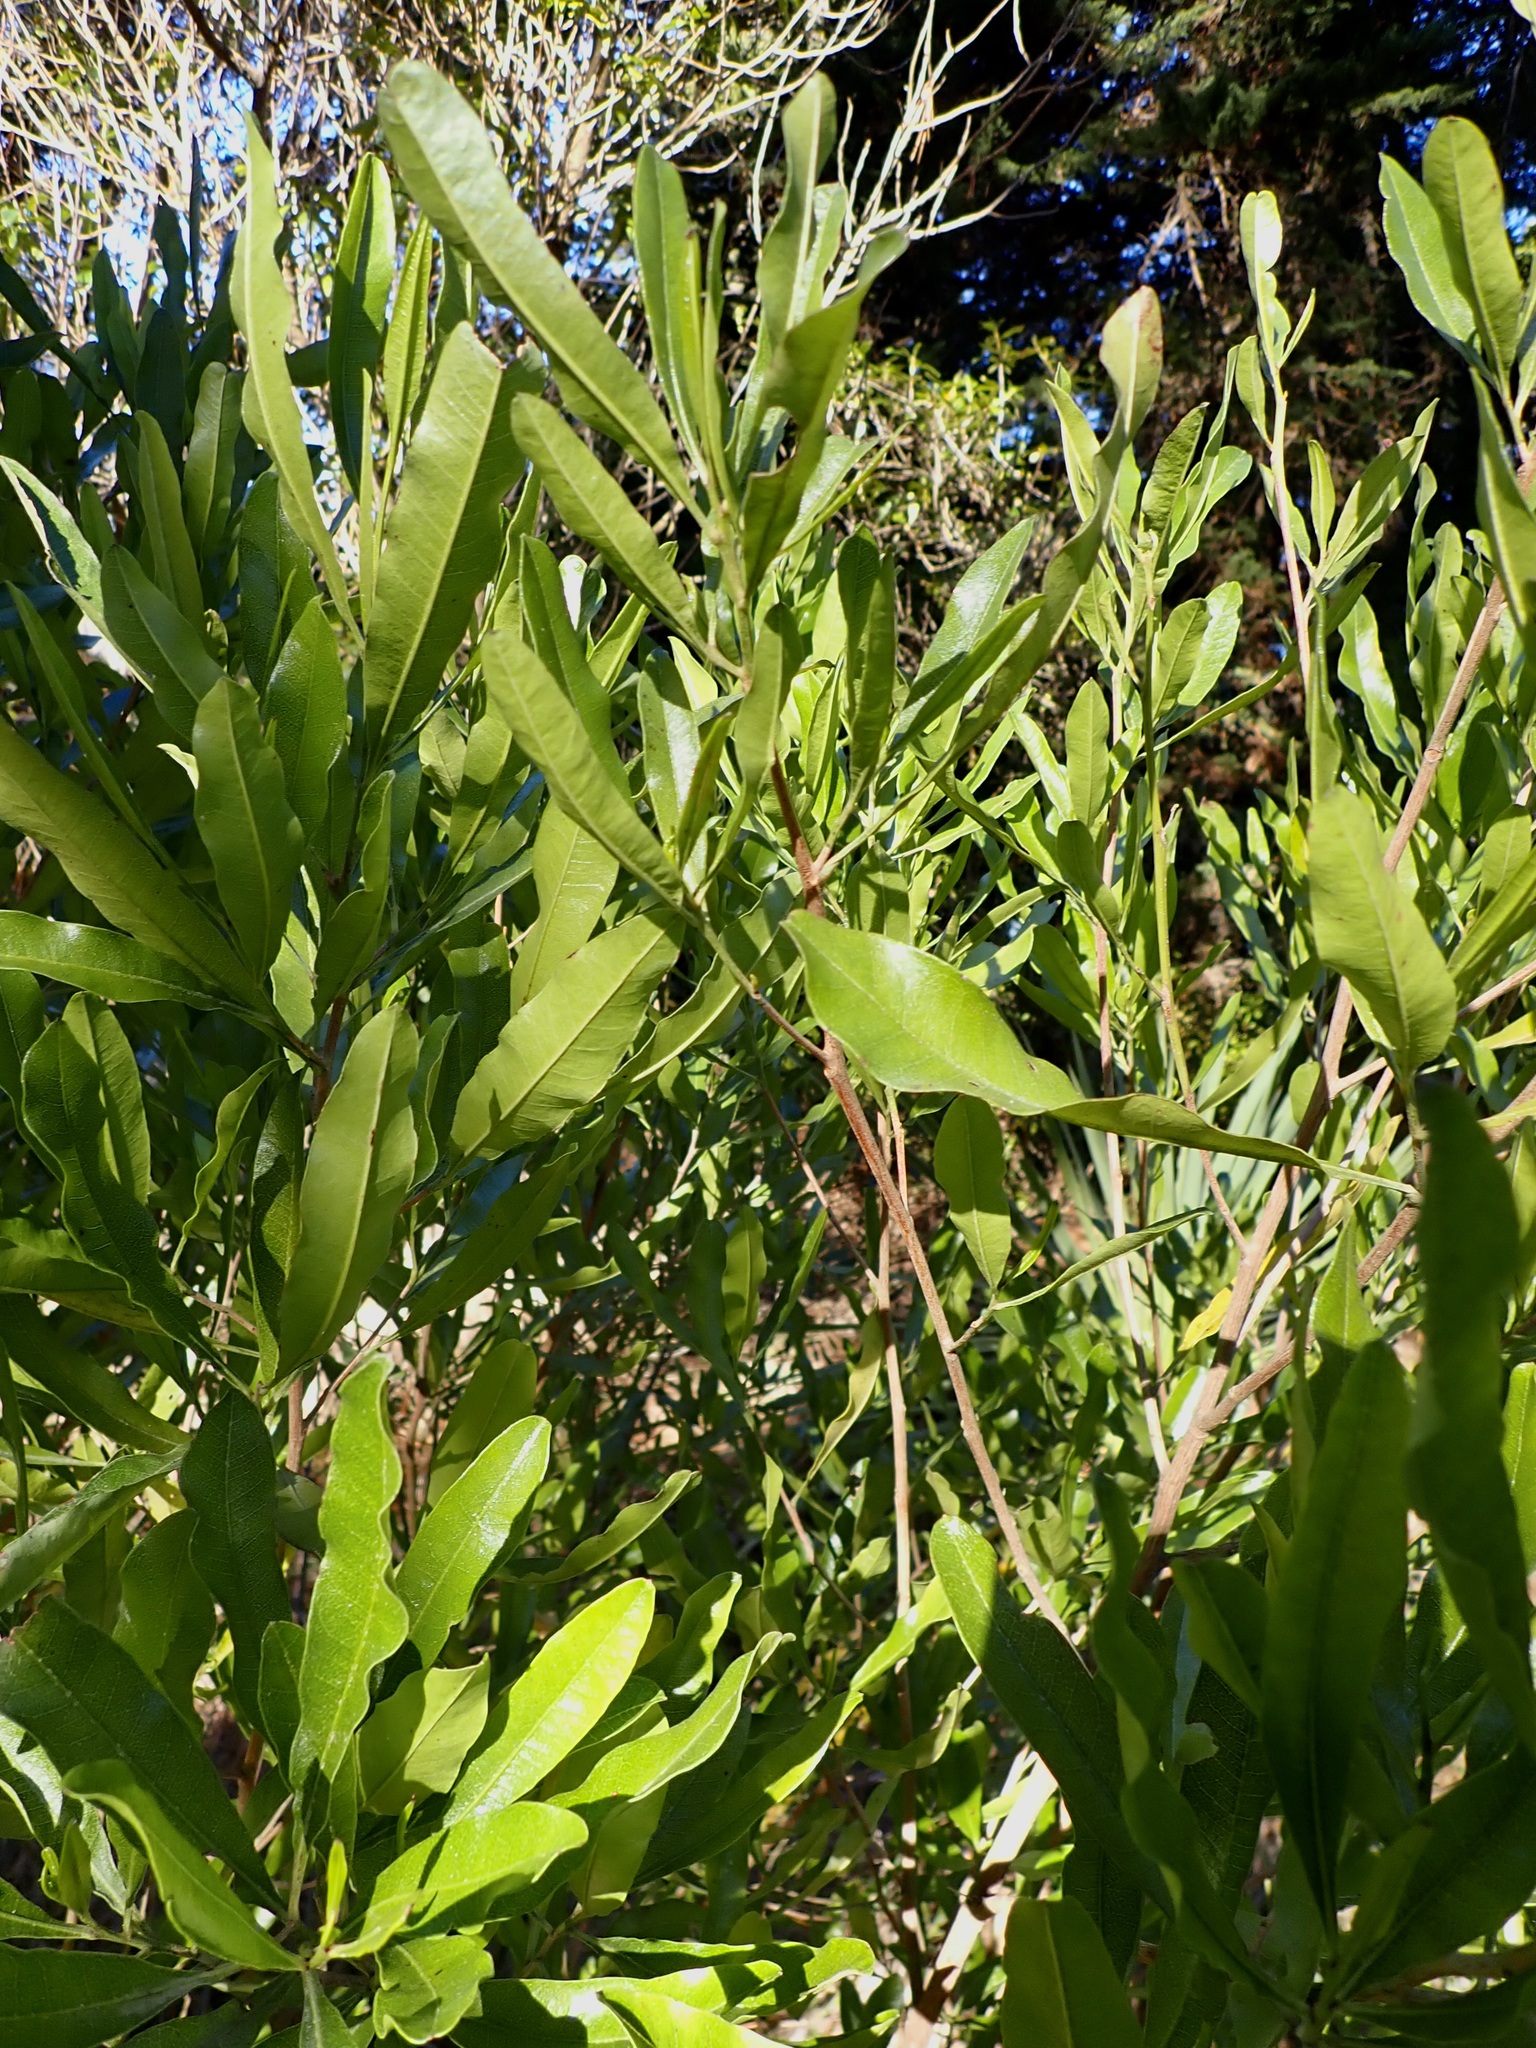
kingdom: Plantae
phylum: Tracheophyta
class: Magnoliopsida
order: Sapindales
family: Sapindaceae
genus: Dodonaea
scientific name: Dodonaea viscosa
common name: Hopbush
